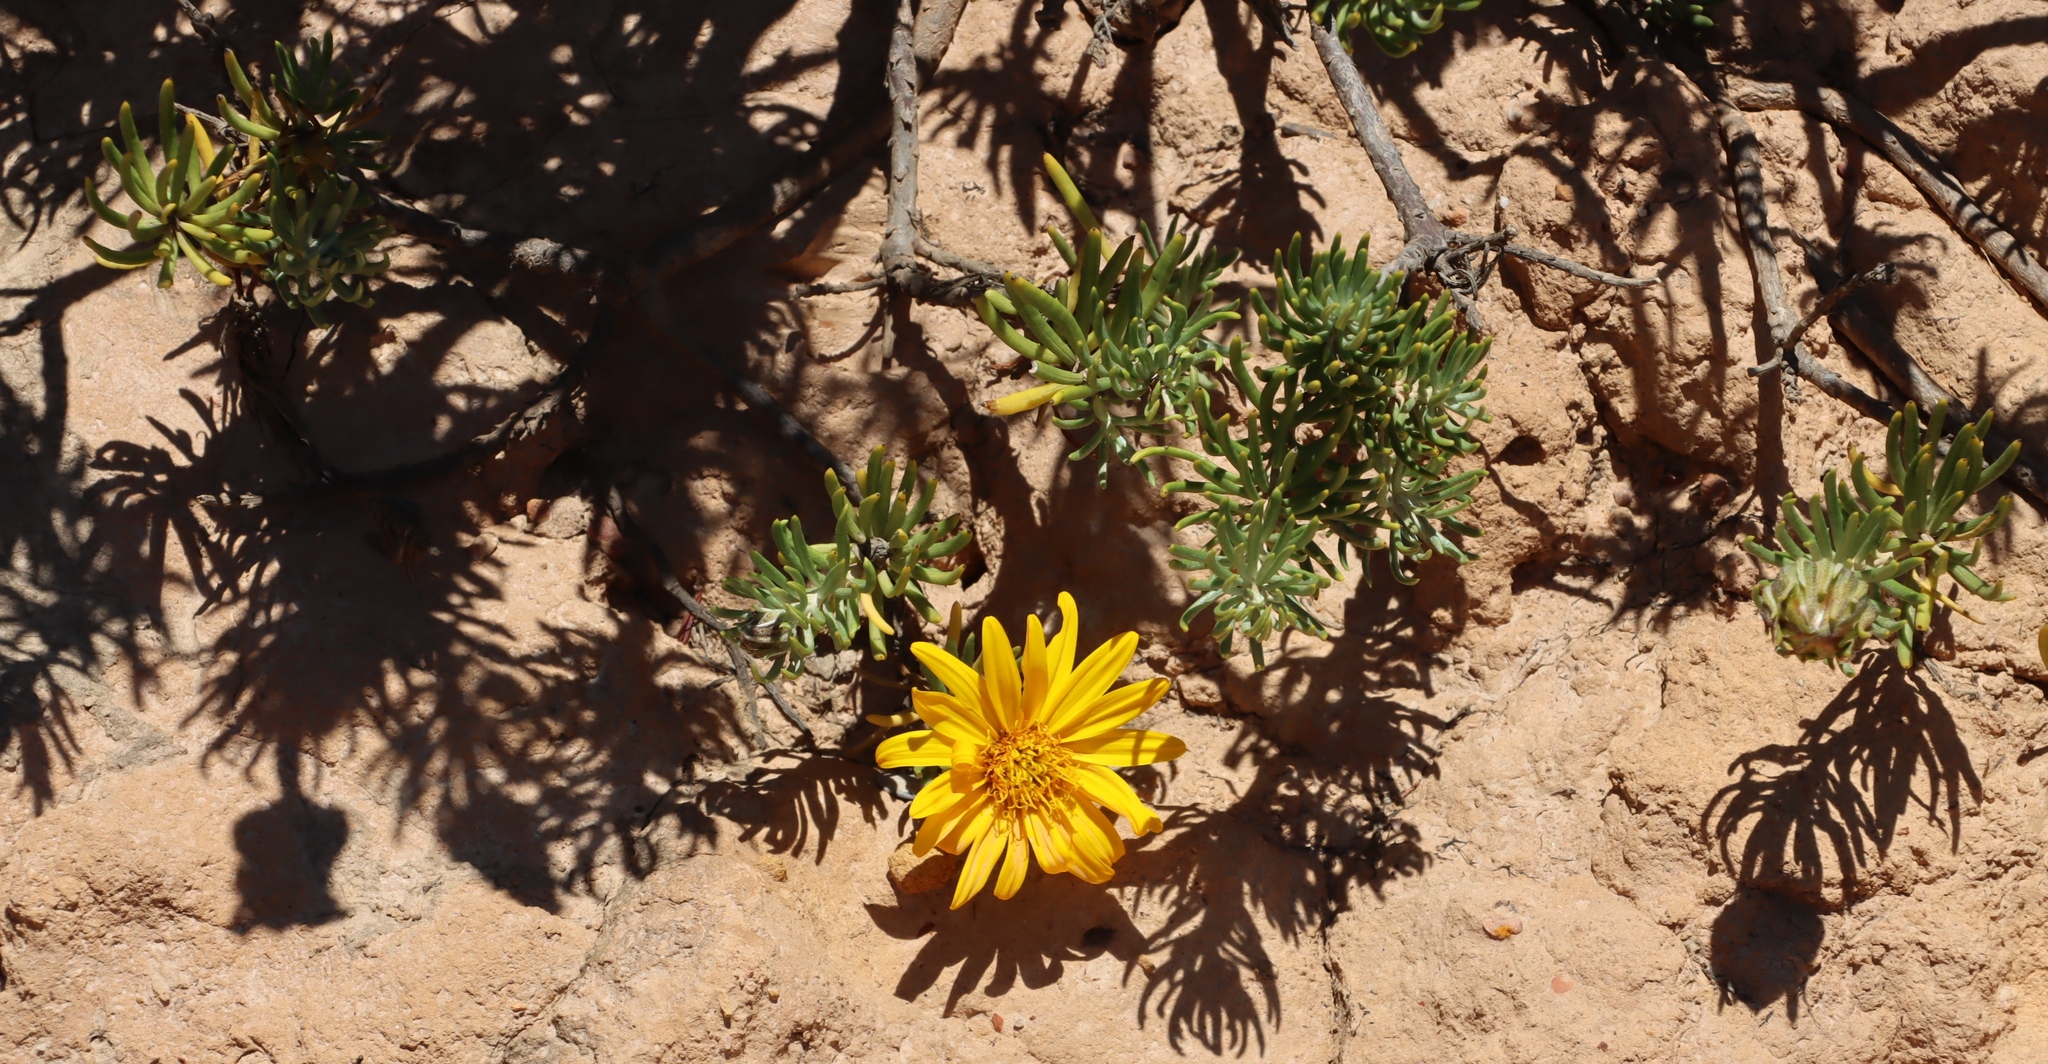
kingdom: Plantae
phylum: Tracheophyta
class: Magnoliopsida
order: Asterales
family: Asteraceae
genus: Heterolepis
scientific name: Heterolepis aliena
